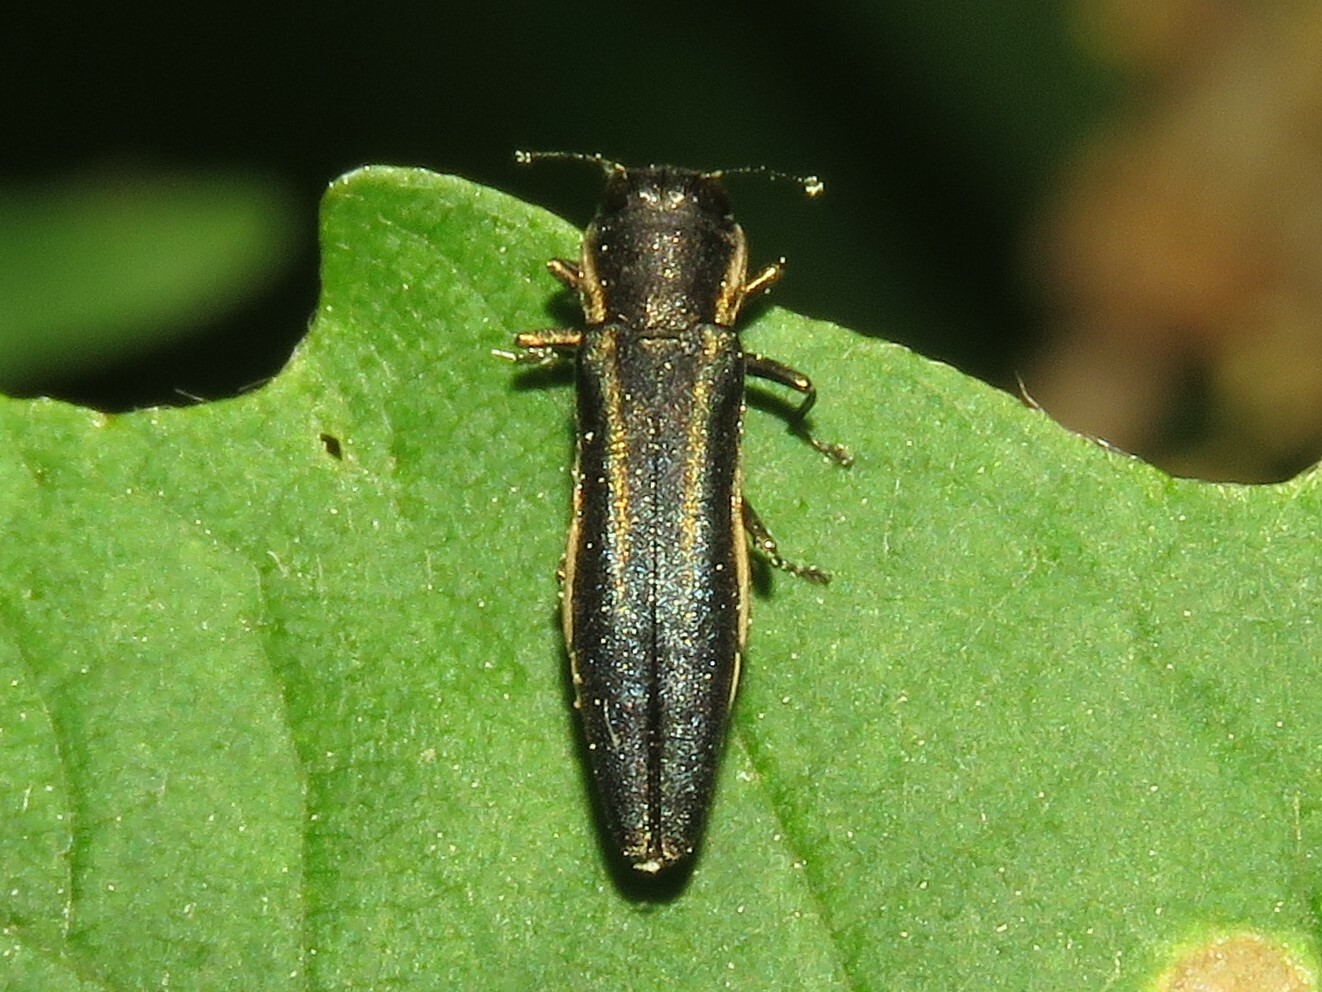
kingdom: Animalia
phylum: Arthropoda
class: Insecta
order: Coleoptera
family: Buprestidae
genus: Agrilus
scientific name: Agrilus bilineatus
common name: Two-lined chestnut borer
